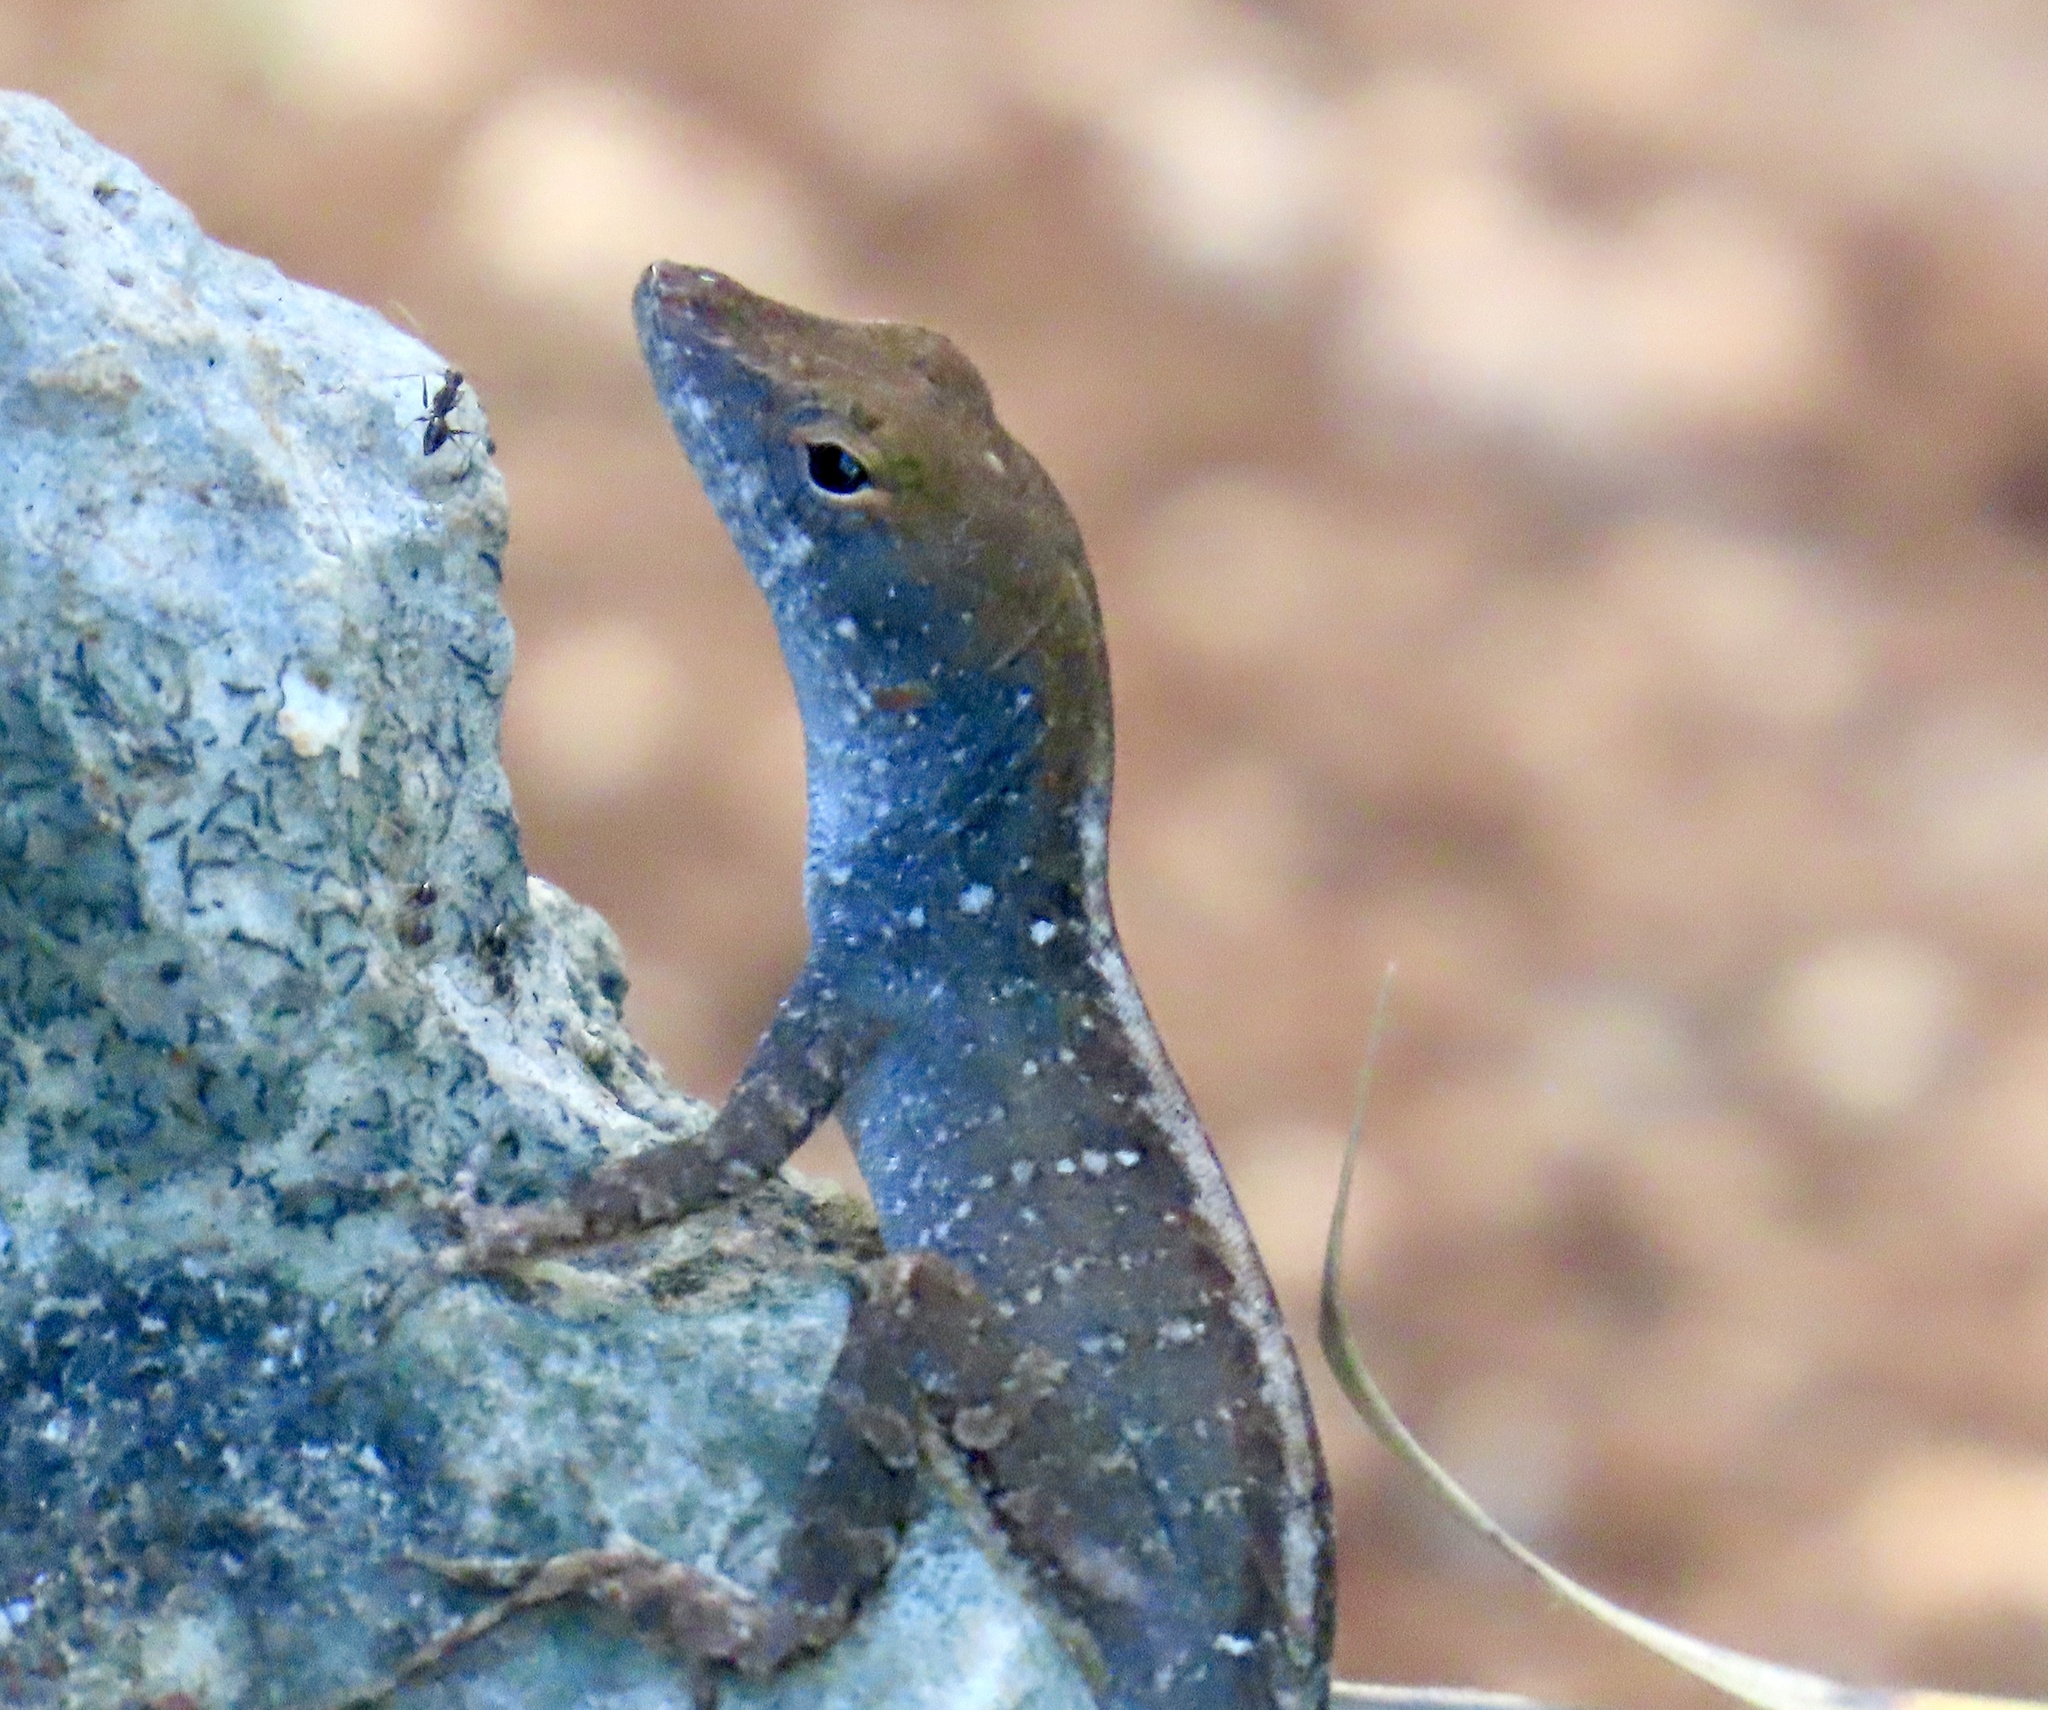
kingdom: Animalia
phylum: Chordata
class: Squamata
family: Dactyloidae
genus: Anolis
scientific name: Anolis sagrei
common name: Brown anole
